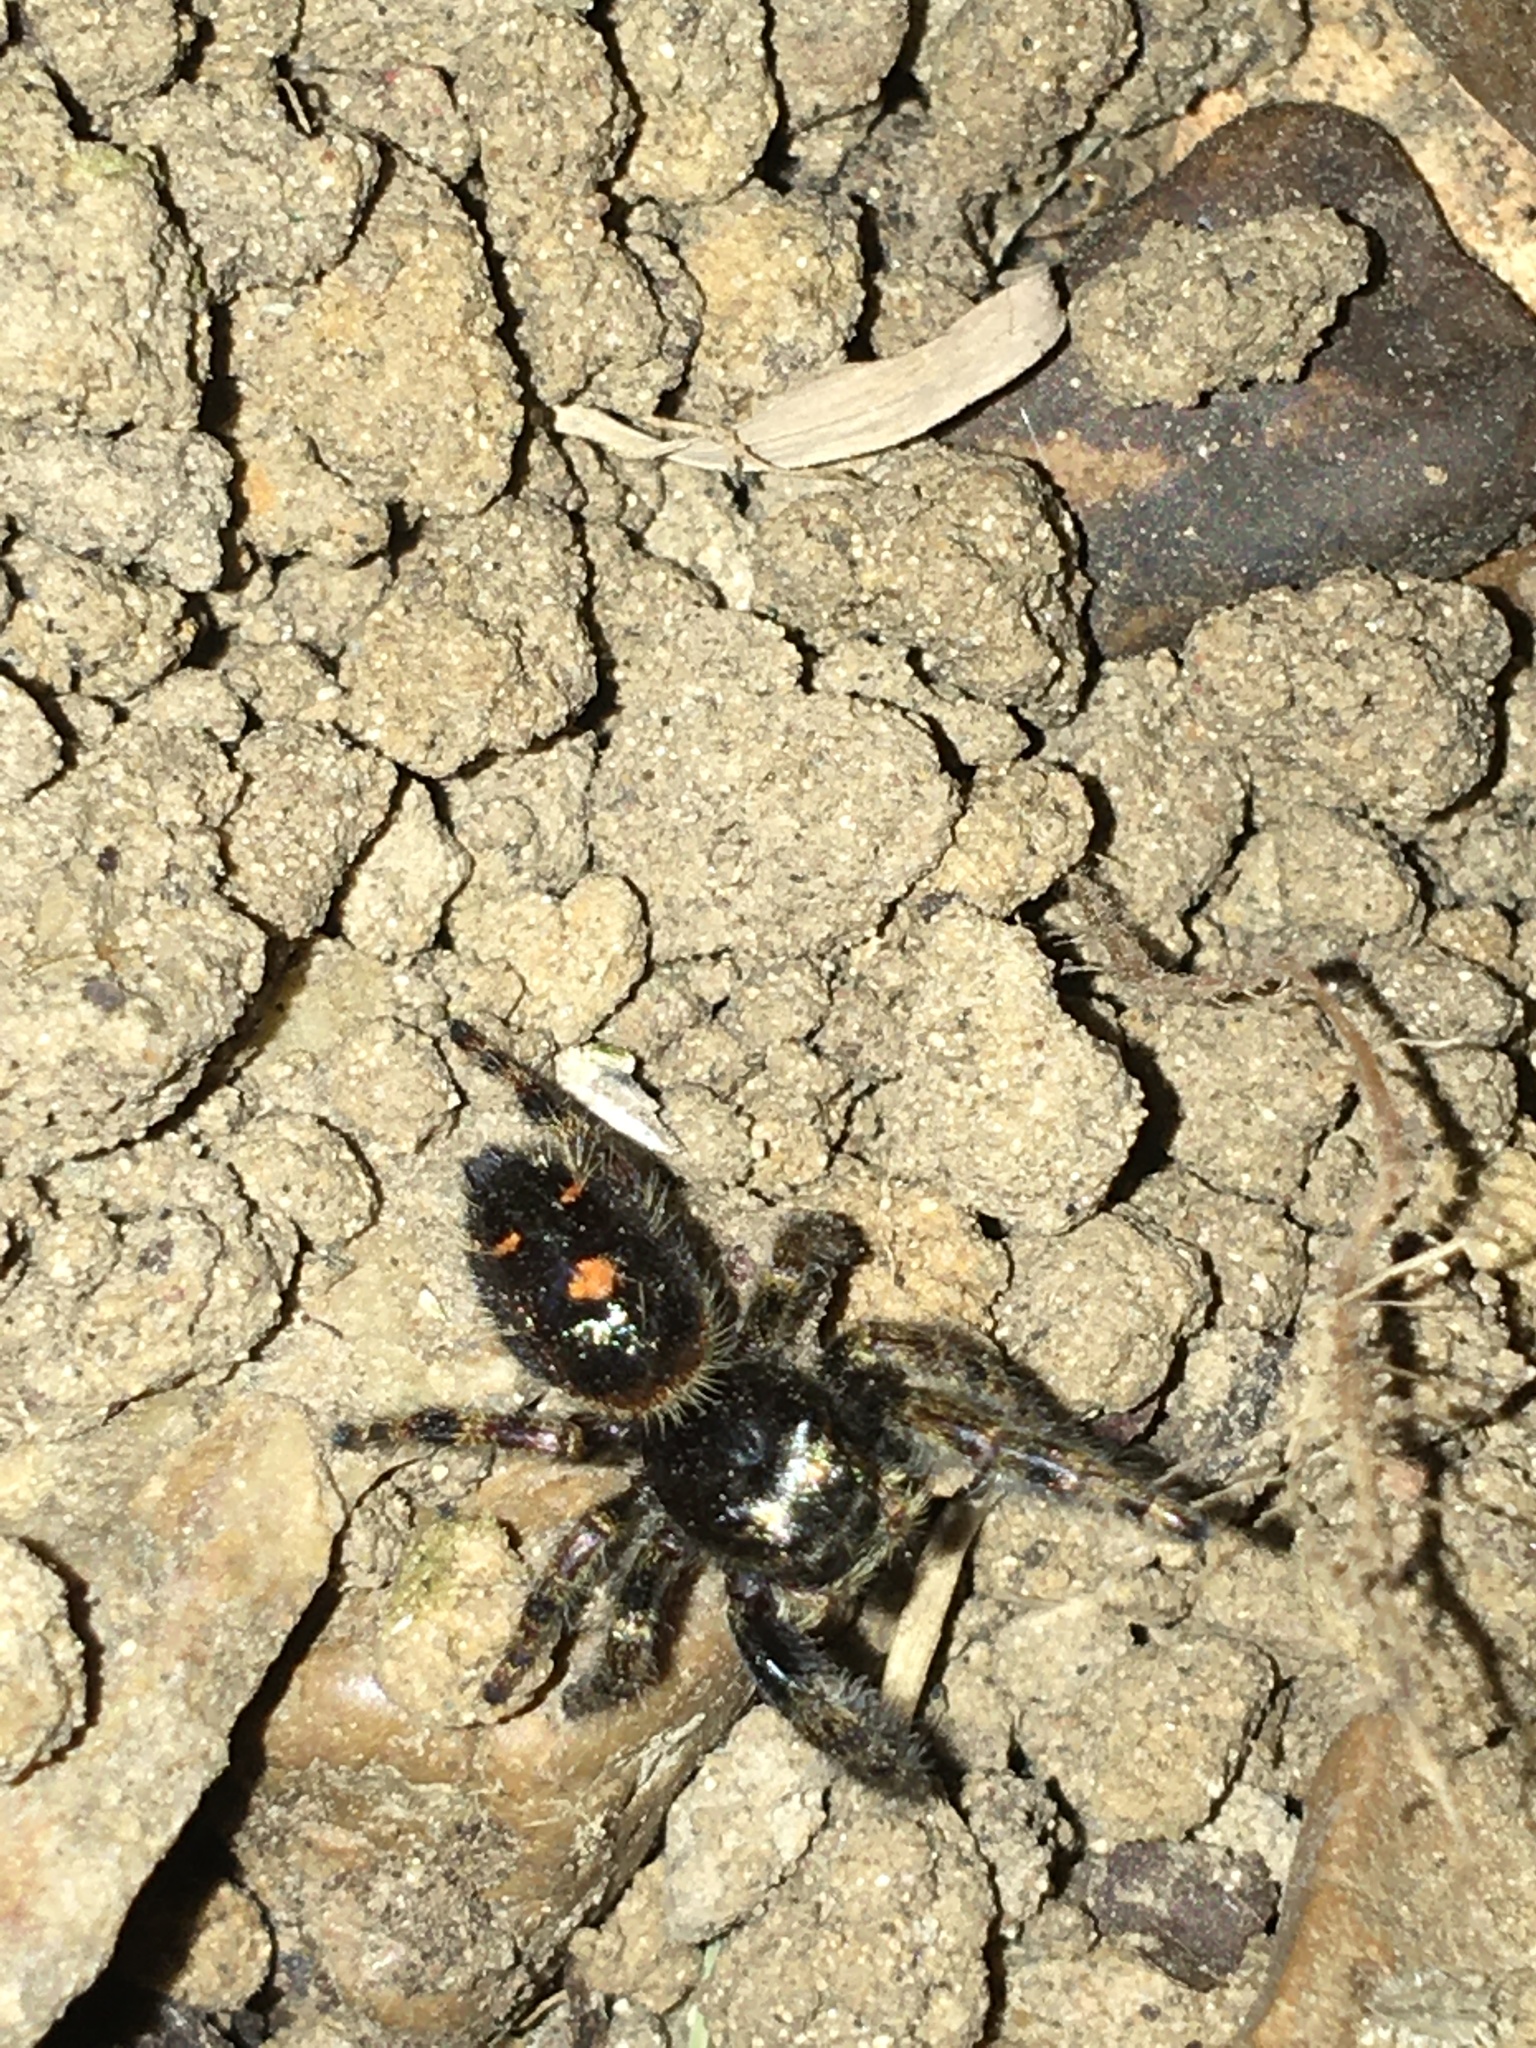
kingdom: Animalia
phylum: Arthropoda
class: Arachnida
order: Araneae
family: Salticidae
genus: Phidippus
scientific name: Phidippus audax
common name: Bold jumper
